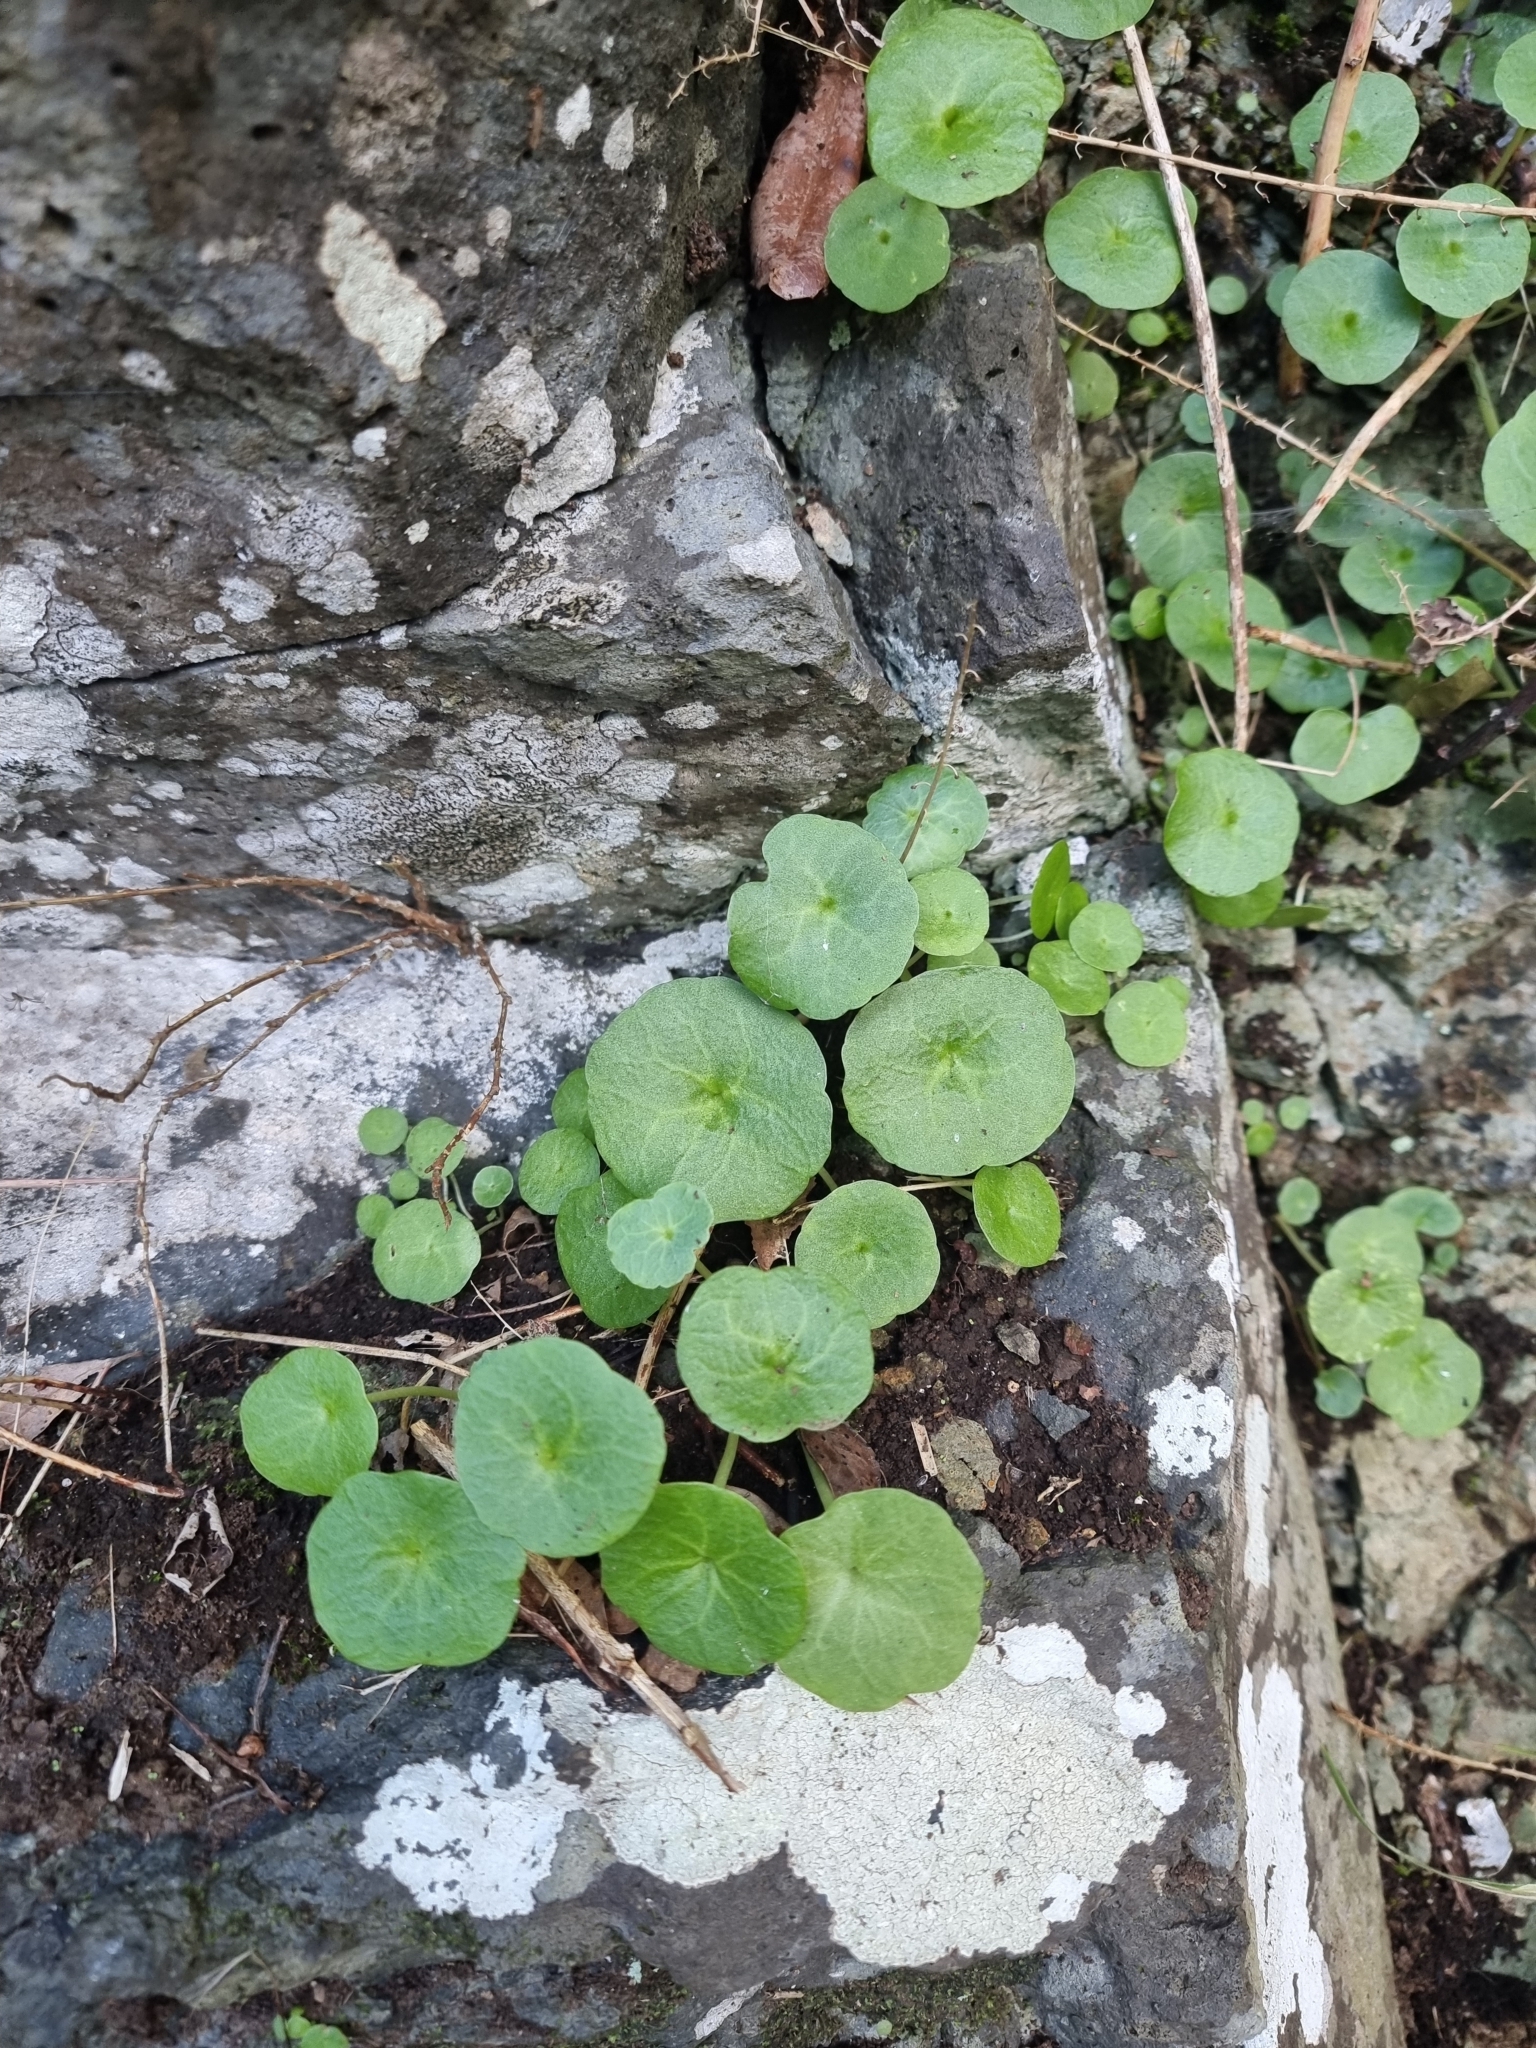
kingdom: Plantae
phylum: Tracheophyta
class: Magnoliopsida
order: Saxifragales
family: Crassulaceae
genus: Umbilicus
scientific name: Umbilicus rupestris
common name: Navelwort
